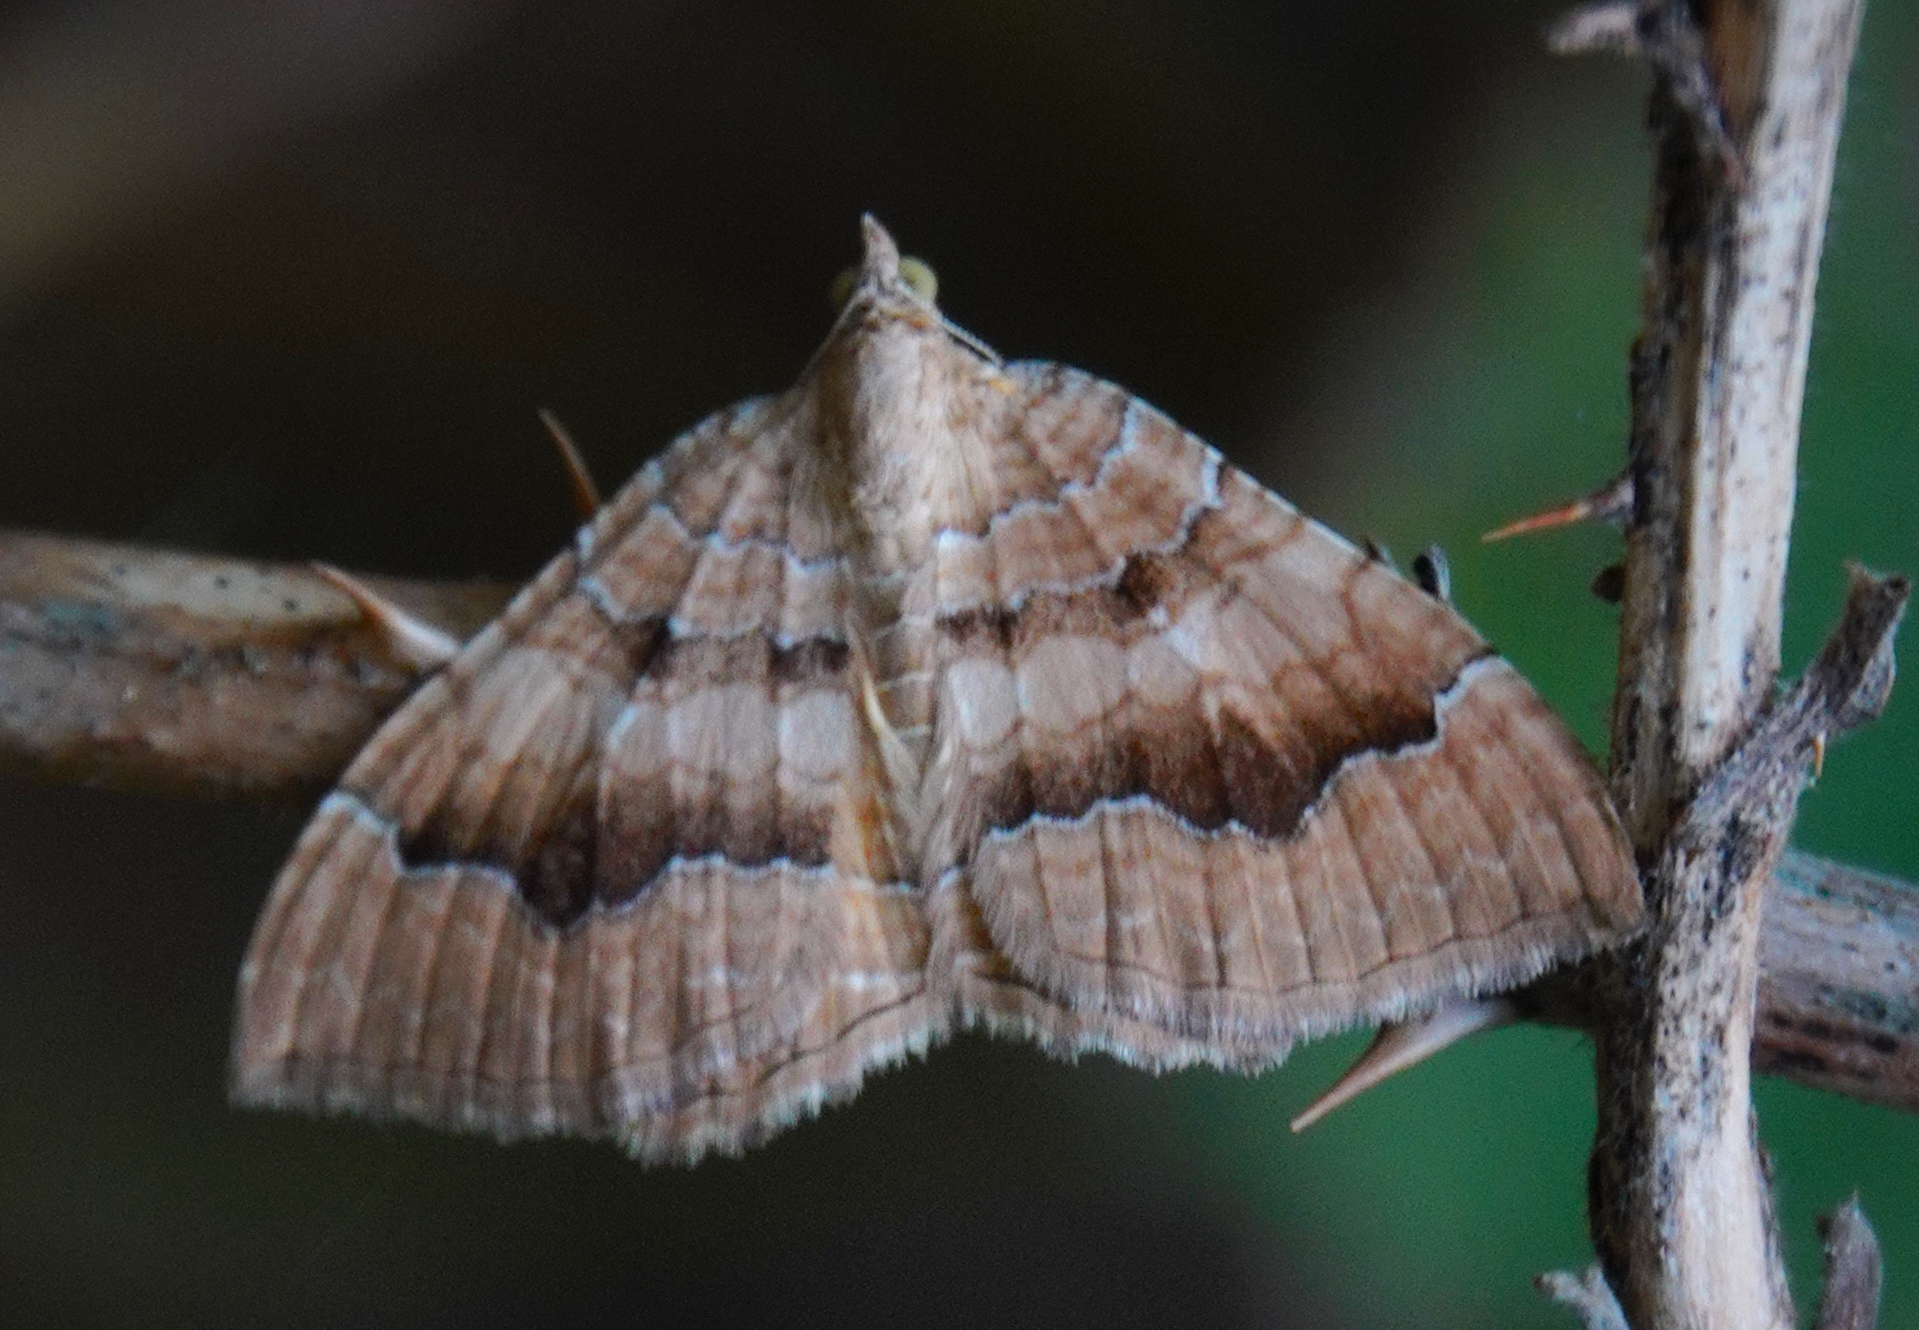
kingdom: Animalia
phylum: Arthropoda
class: Insecta
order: Lepidoptera
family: Geometridae
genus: Camptogramma
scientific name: Camptogramma bilineata
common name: Yellow shell
